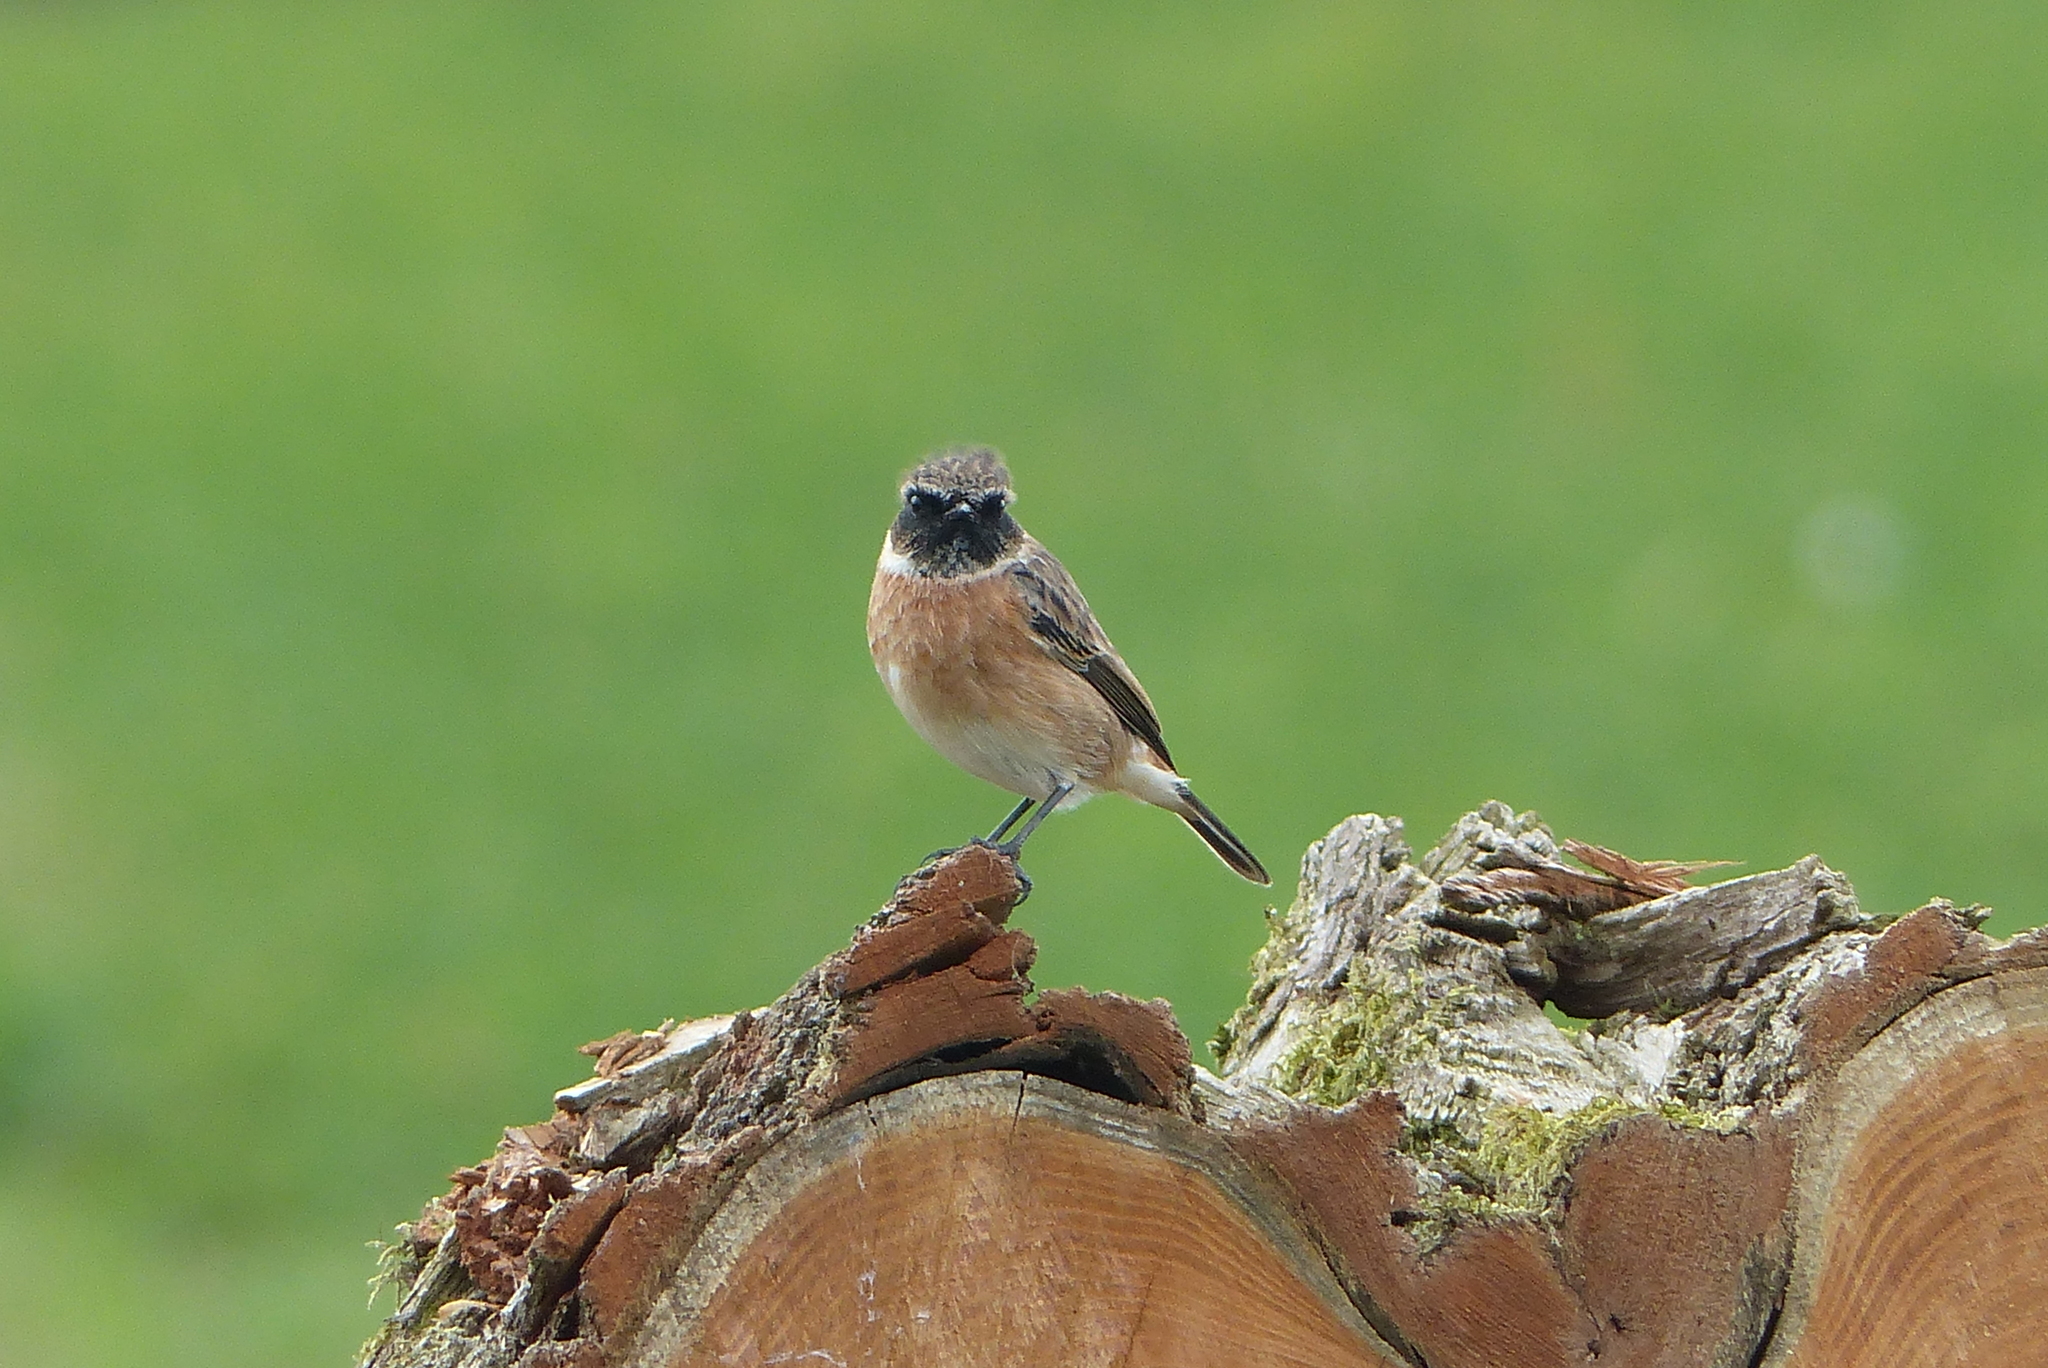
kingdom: Animalia
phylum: Chordata
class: Aves
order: Passeriformes
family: Muscicapidae
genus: Saxicola
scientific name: Saxicola rubicola
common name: European stonechat
